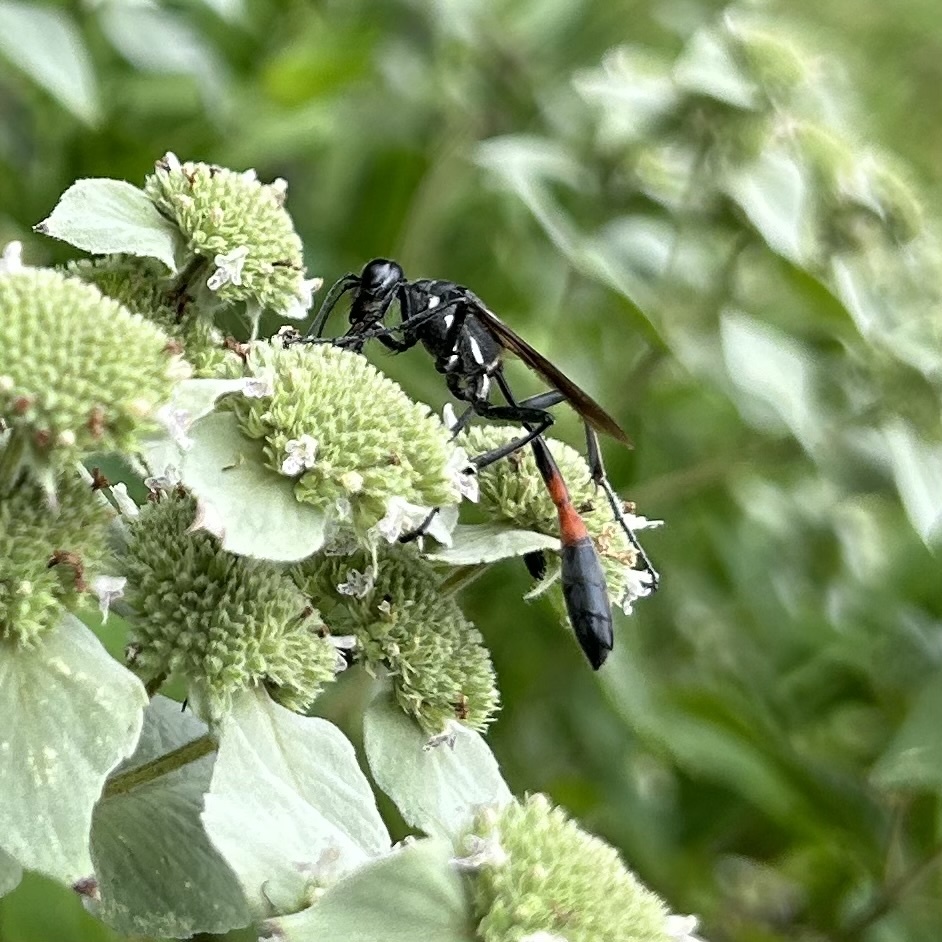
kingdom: Animalia
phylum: Arthropoda
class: Insecta
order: Hymenoptera
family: Sphecidae
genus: Ammophila
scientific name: Ammophila procera
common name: Common thread-waisted wasp
